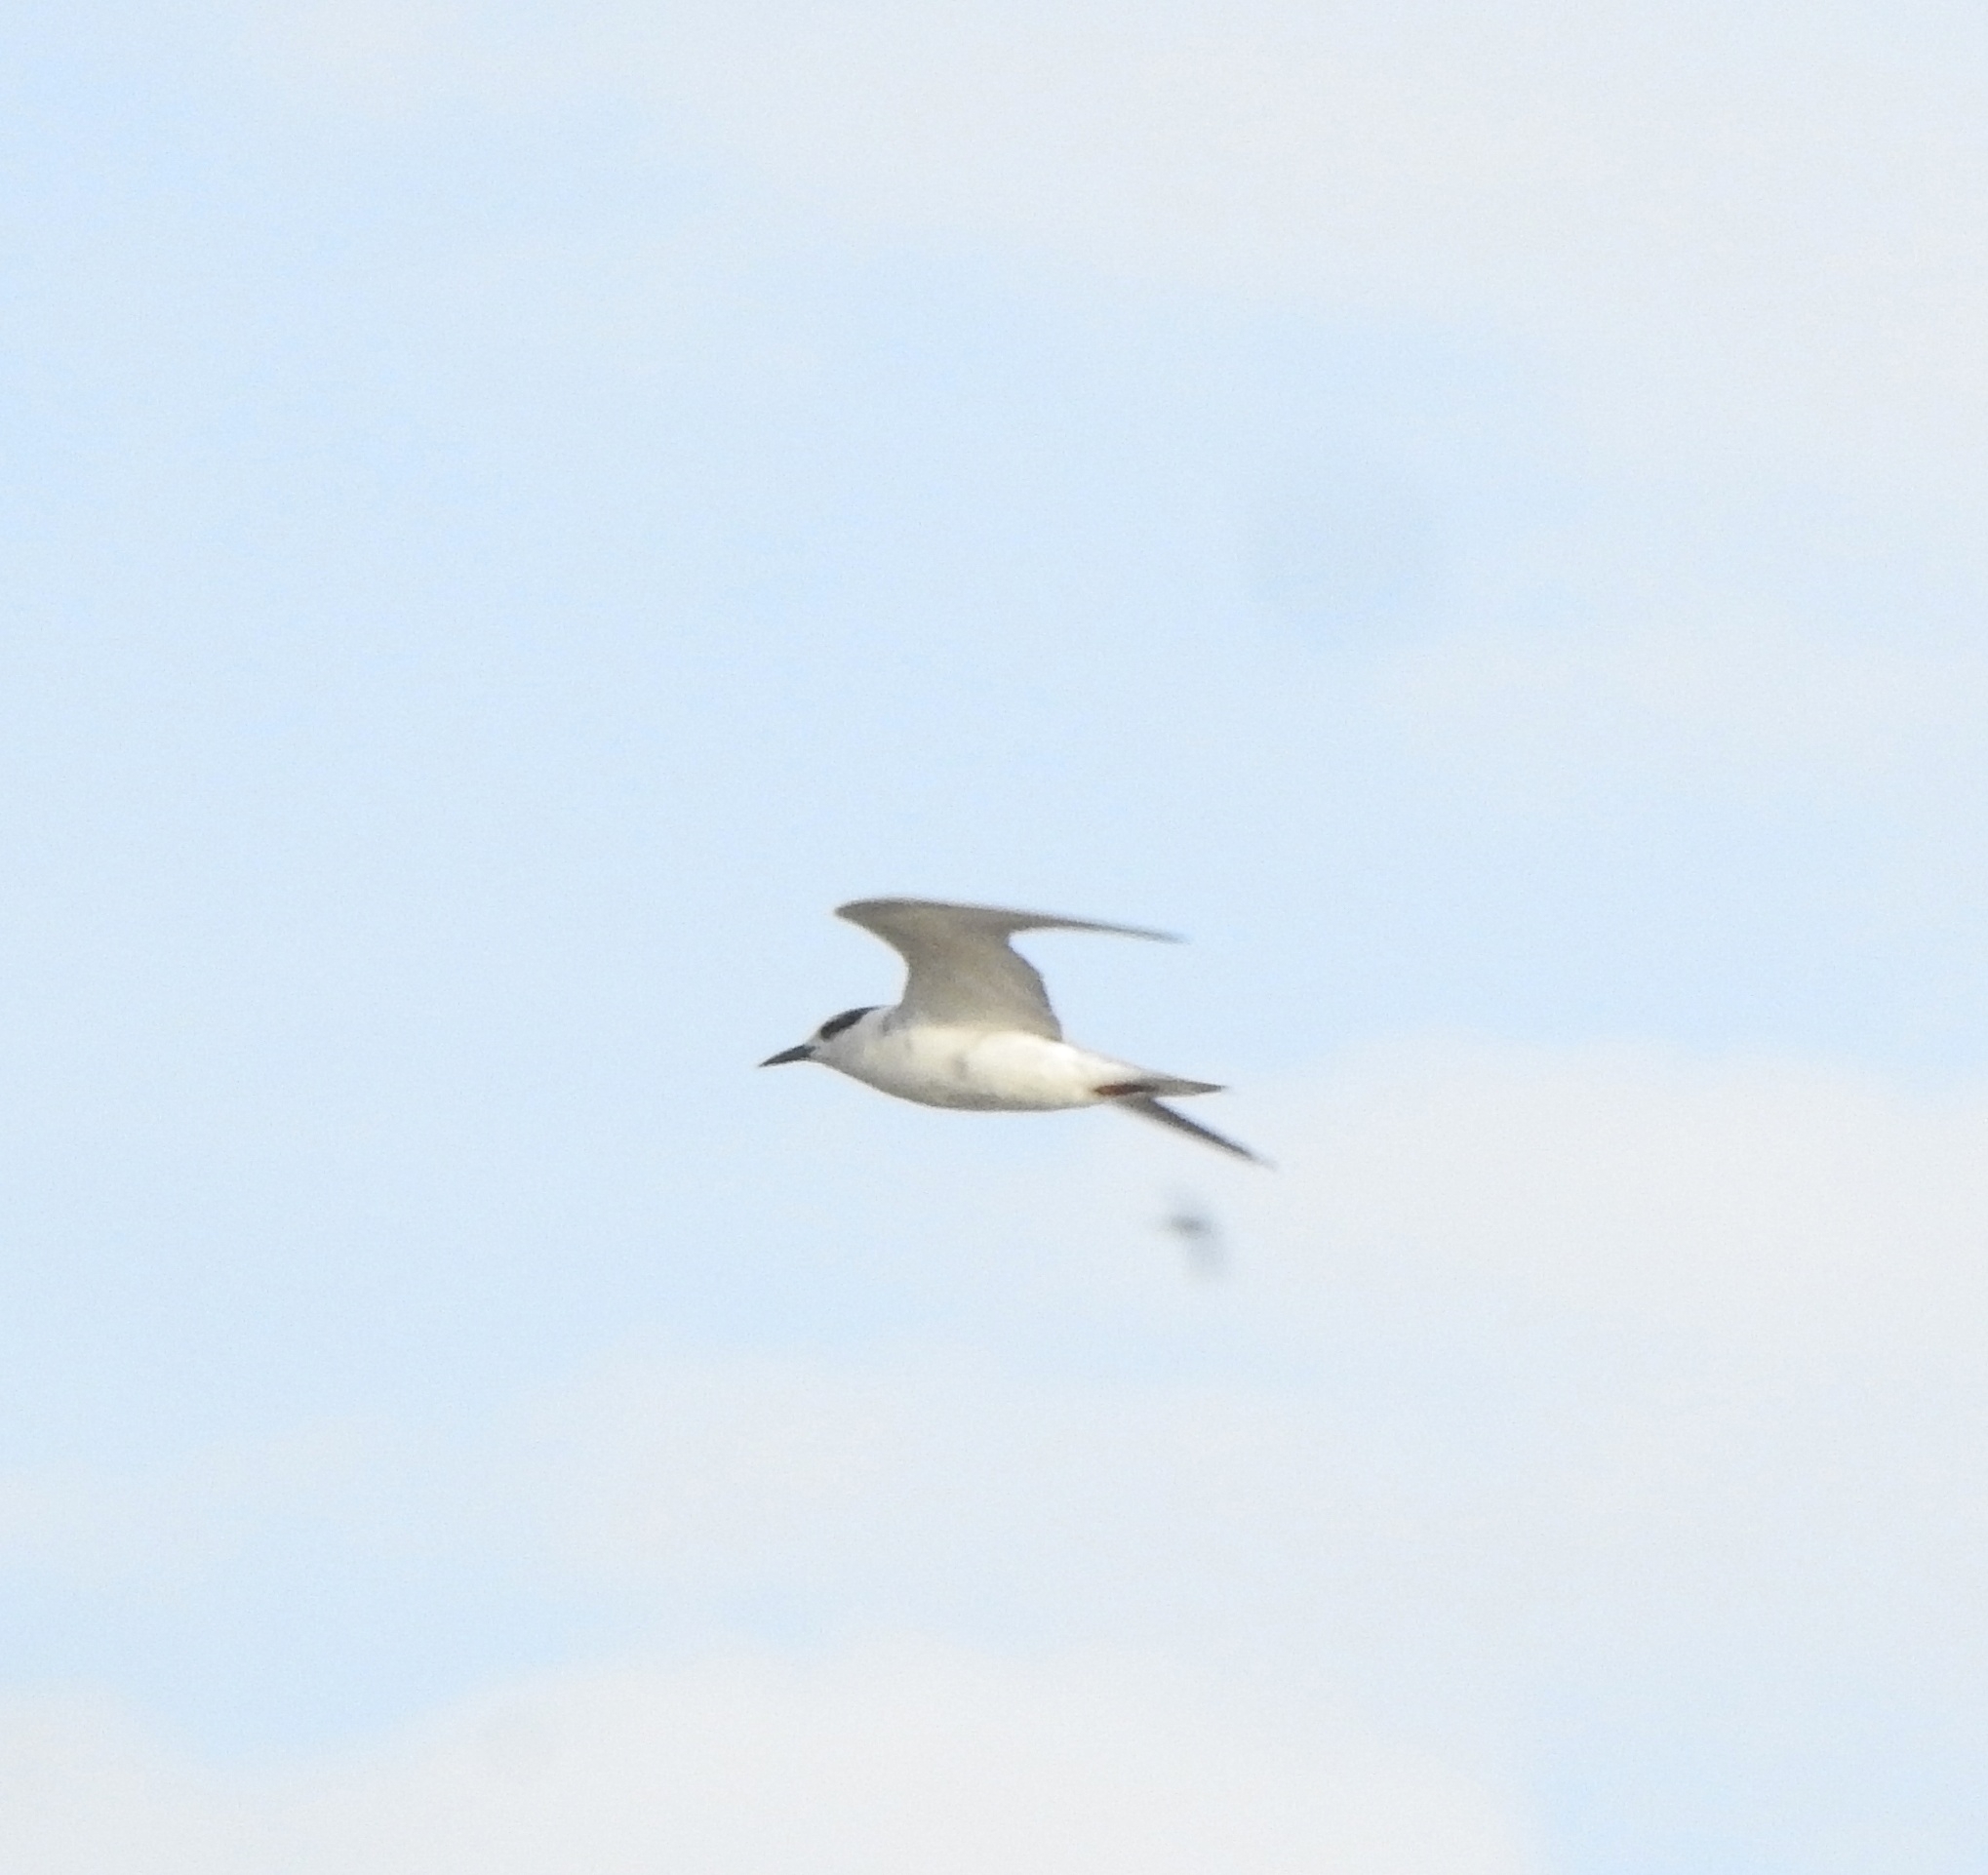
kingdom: Animalia
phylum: Chordata
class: Aves
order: Charadriiformes
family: Laridae
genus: Chlidonias
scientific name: Chlidonias hybrida
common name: Whiskered tern
